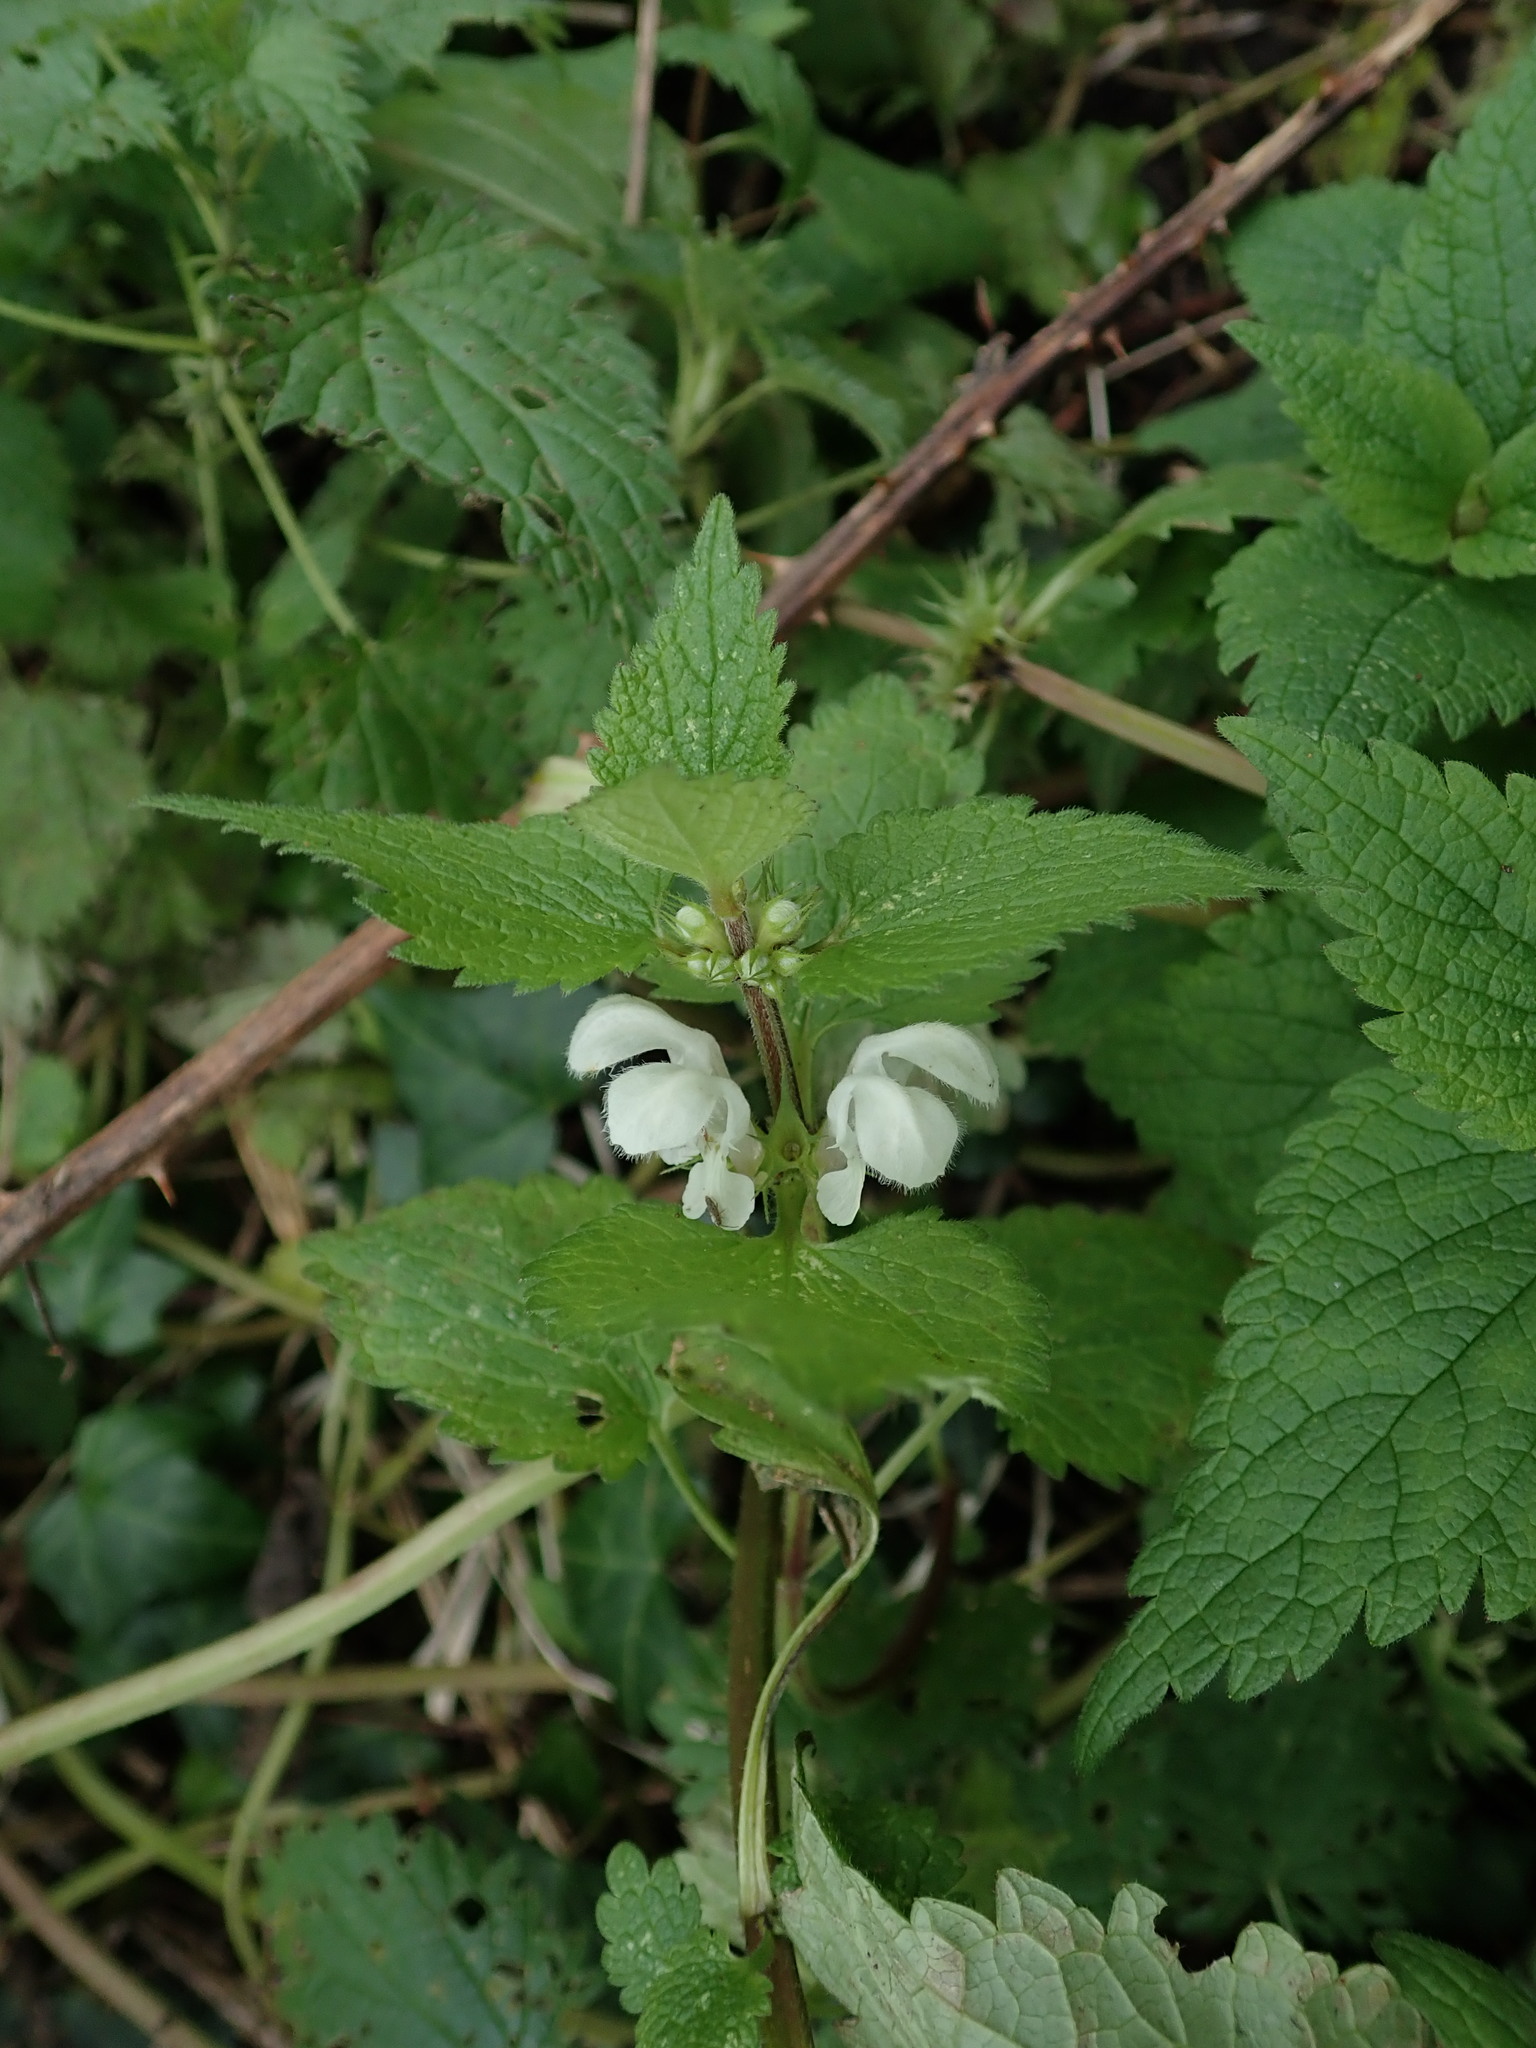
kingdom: Plantae
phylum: Tracheophyta
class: Magnoliopsida
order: Lamiales
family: Lamiaceae
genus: Lamium
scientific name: Lamium album
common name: White dead-nettle
